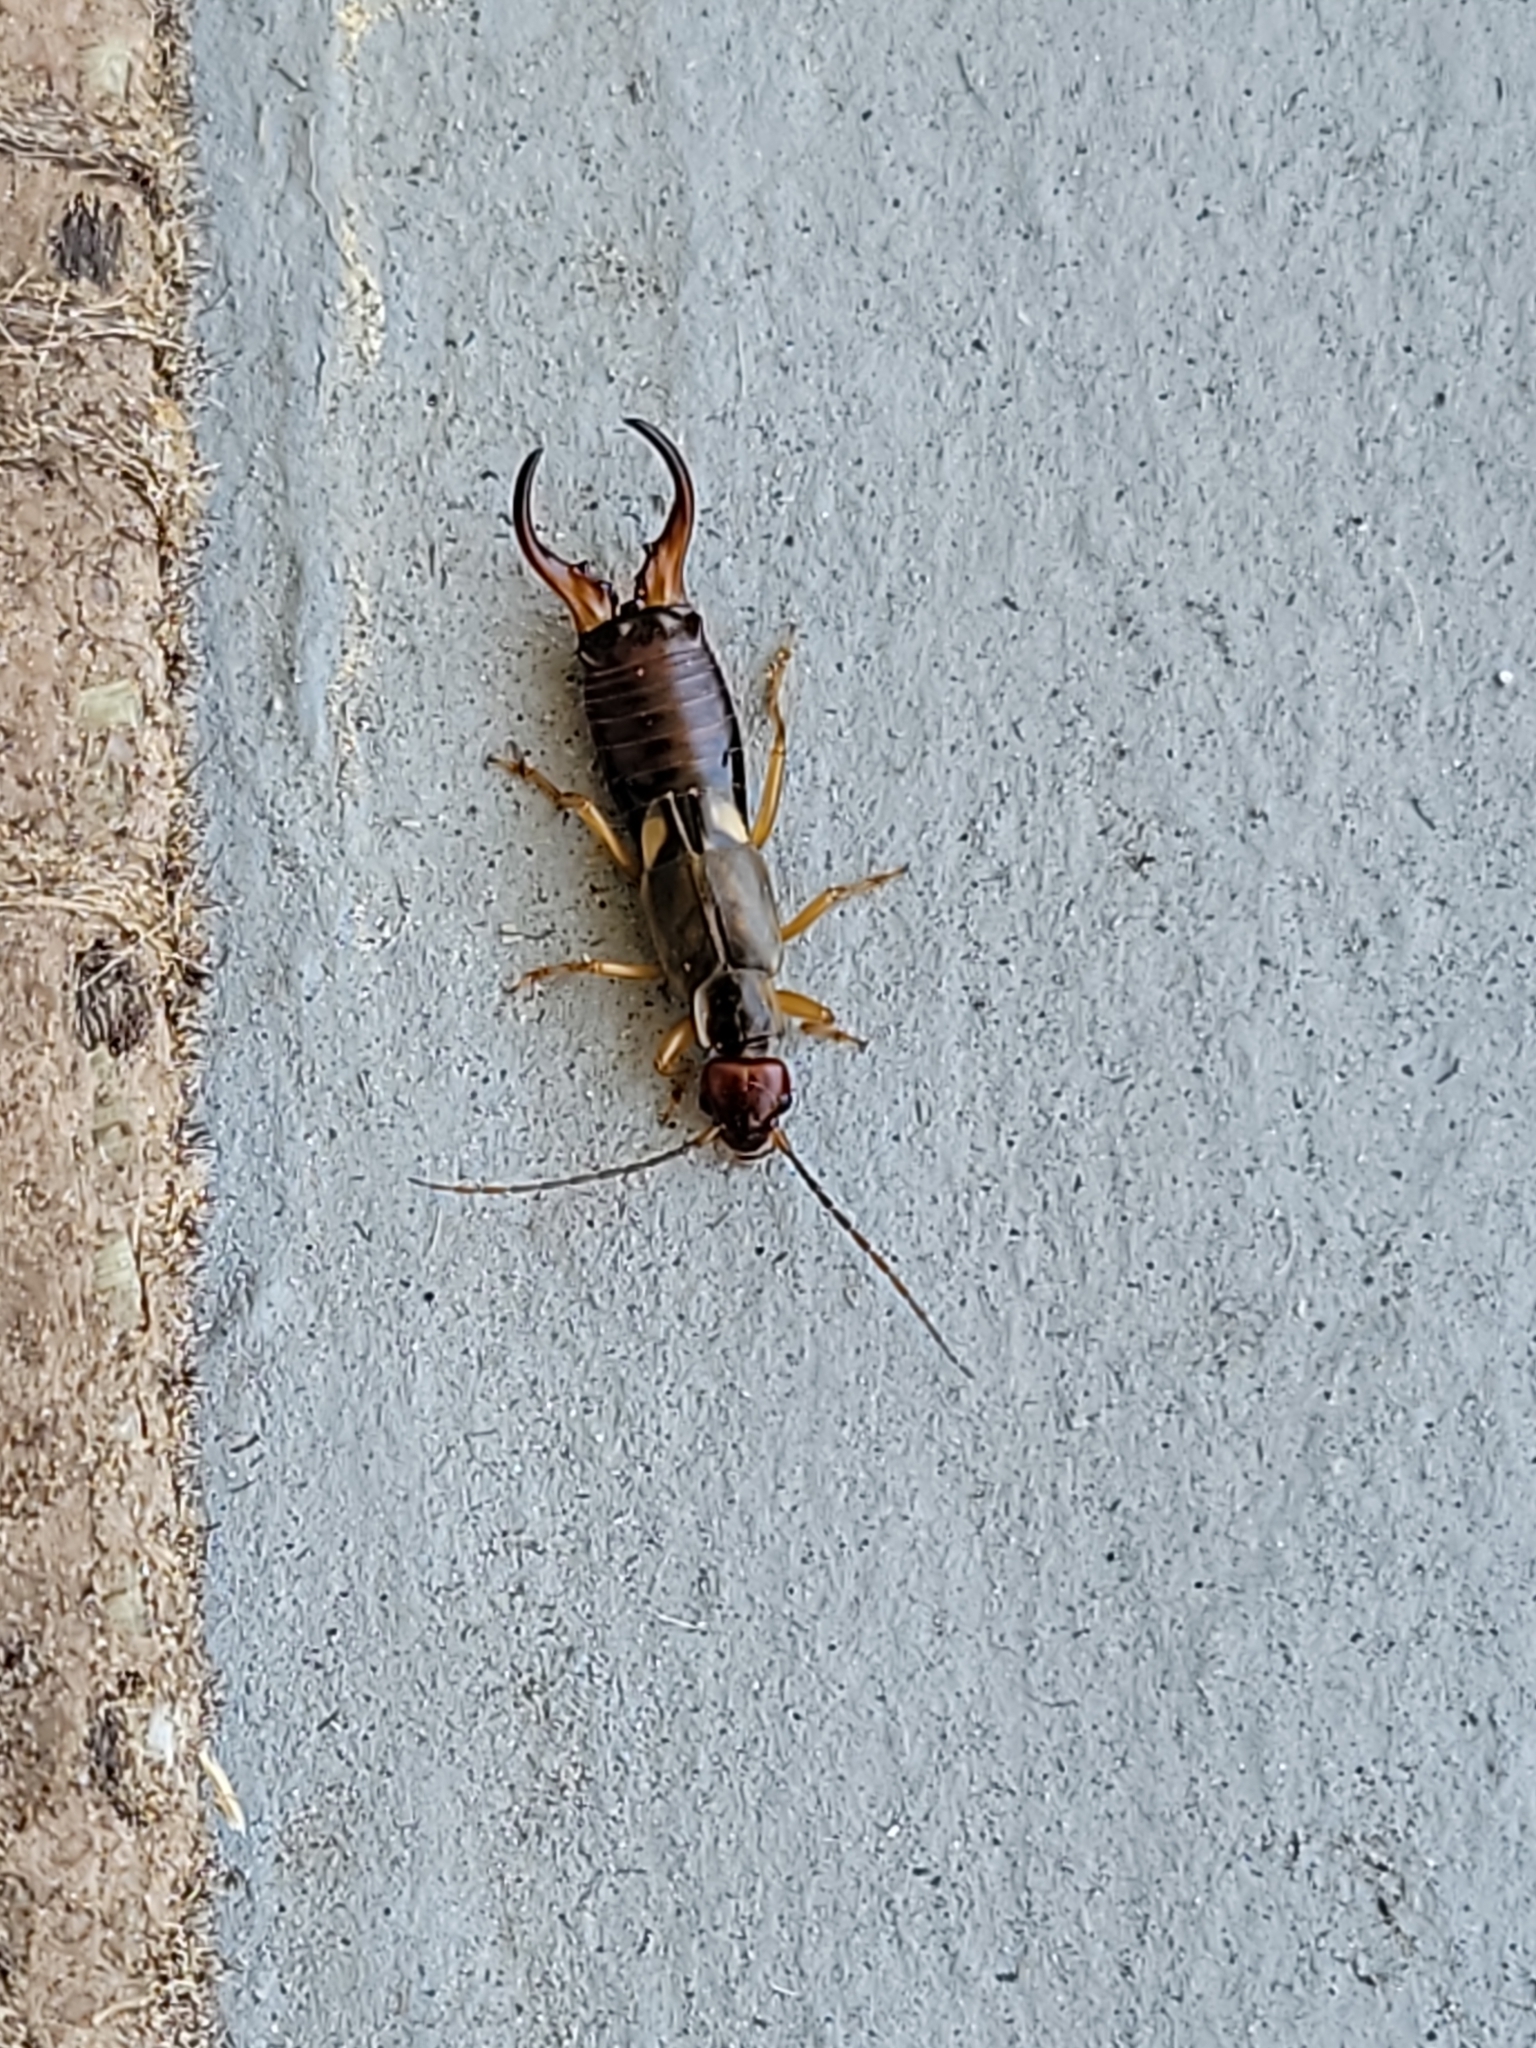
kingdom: Animalia
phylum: Arthropoda
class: Insecta
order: Dermaptera
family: Forficulidae
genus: Forficula
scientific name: Forficula
